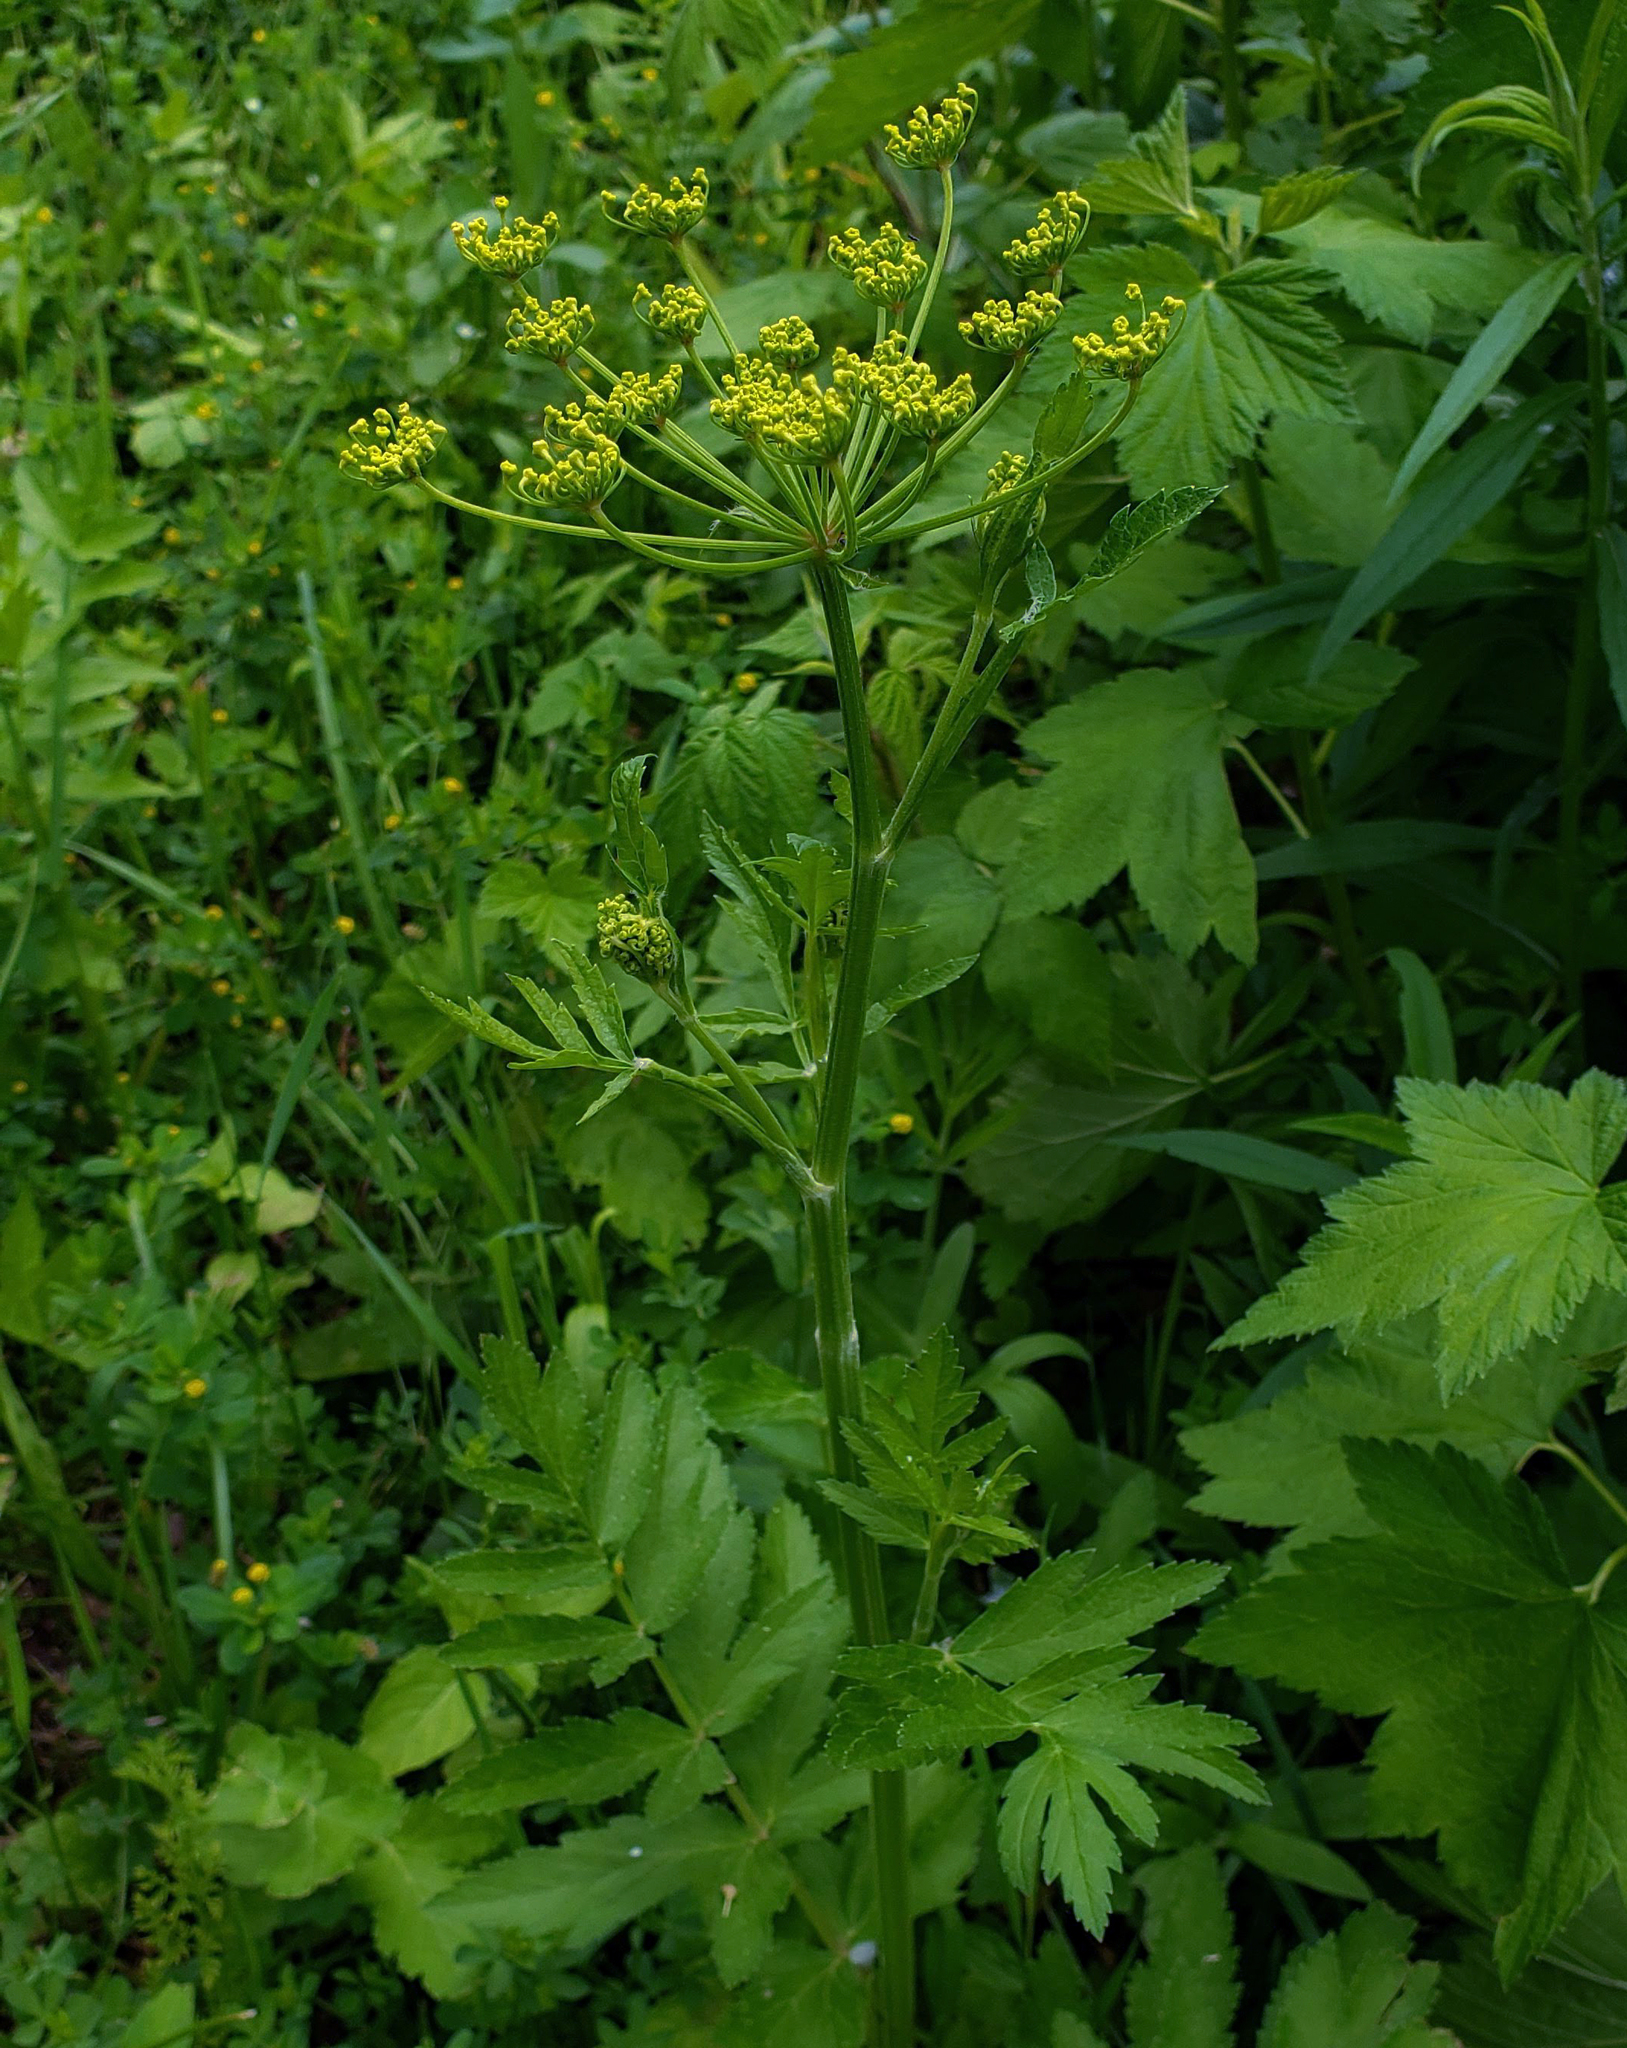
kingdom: Plantae
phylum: Tracheophyta
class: Magnoliopsida
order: Apiales
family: Apiaceae
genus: Pastinaca
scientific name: Pastinaca sativa
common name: Wild parsnip
